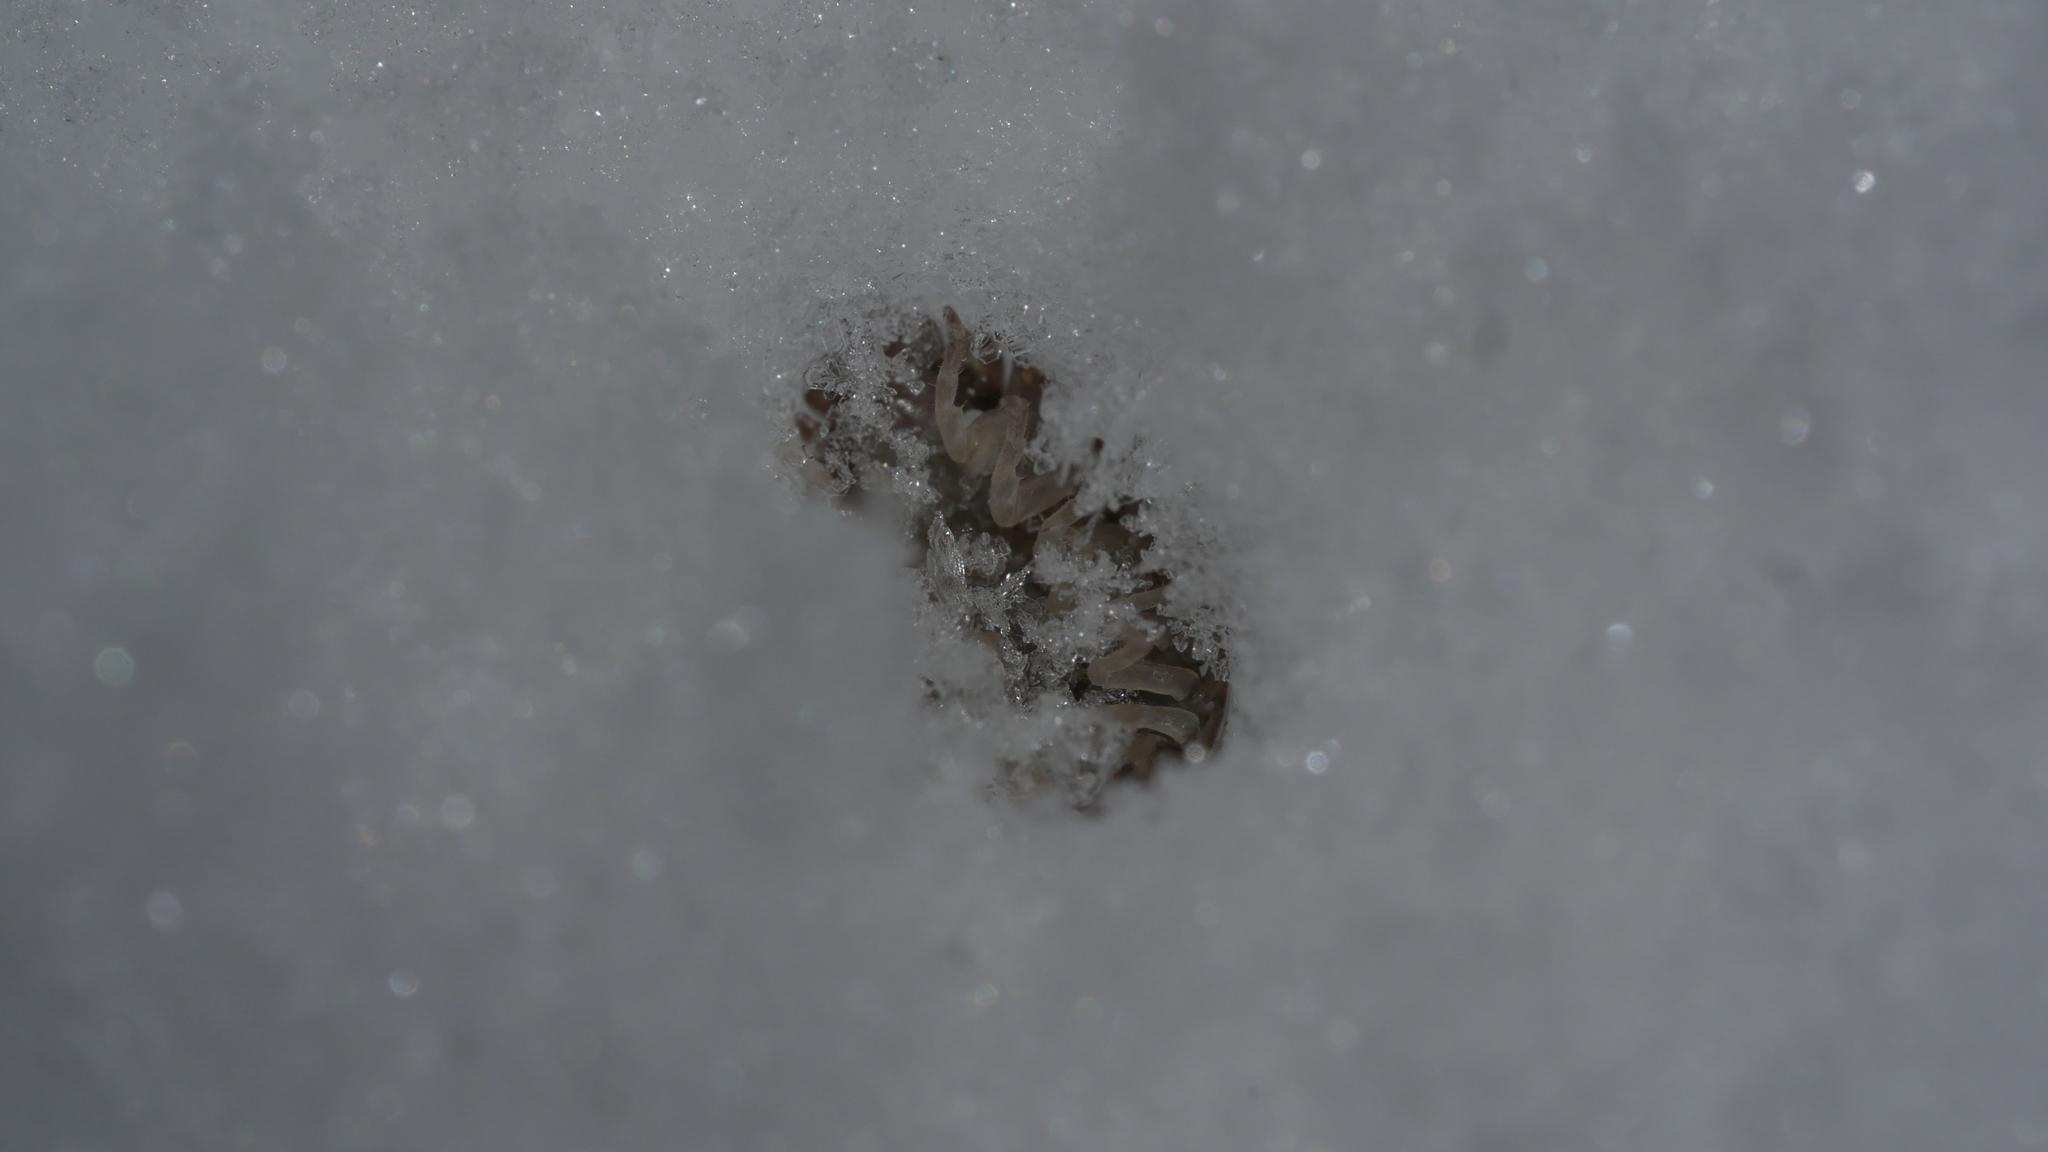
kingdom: Animalia
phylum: Arthropoda
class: Malacostraca
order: Isopoda
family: Porcellionidae
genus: Porcellio
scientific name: Porcellio scaber
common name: Common rough woodlouse
